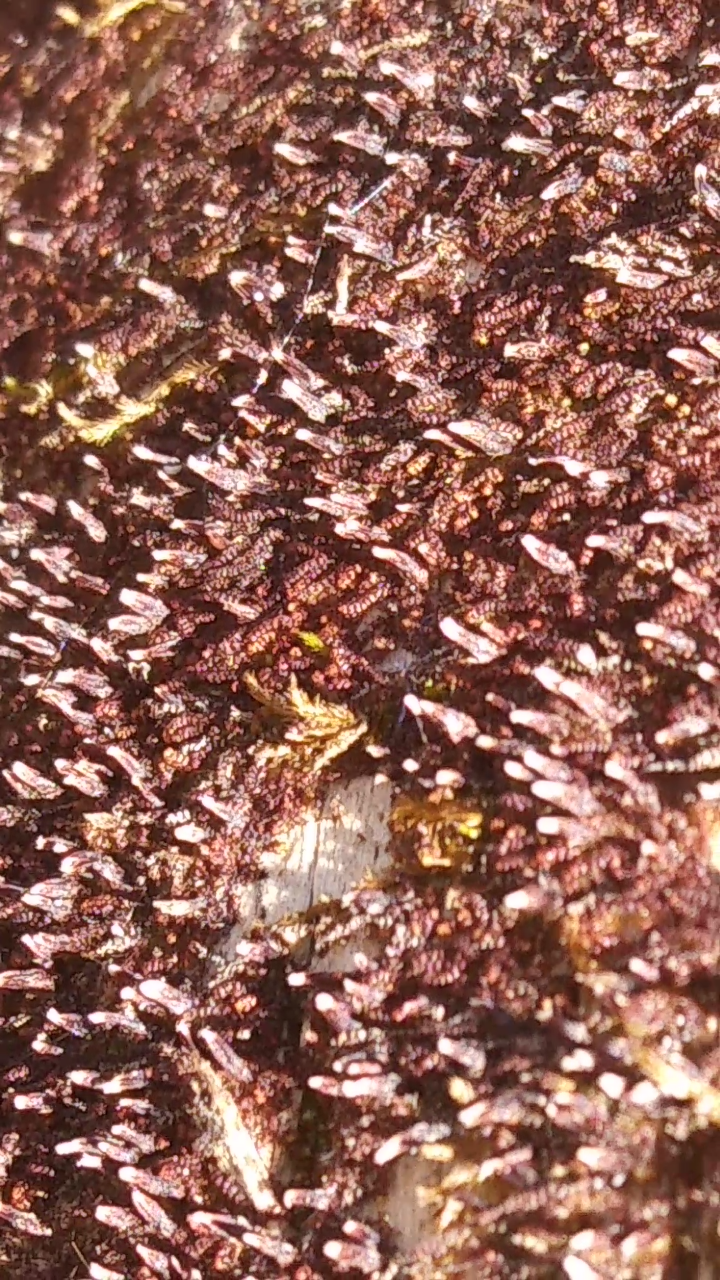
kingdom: Plantae
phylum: Marchantiophyta
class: Jungermanniopsida
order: Jungermanniales
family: Cephaloziaceae
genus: Nowellia
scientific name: Nowellia curvifolia
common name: Wood rustwort
